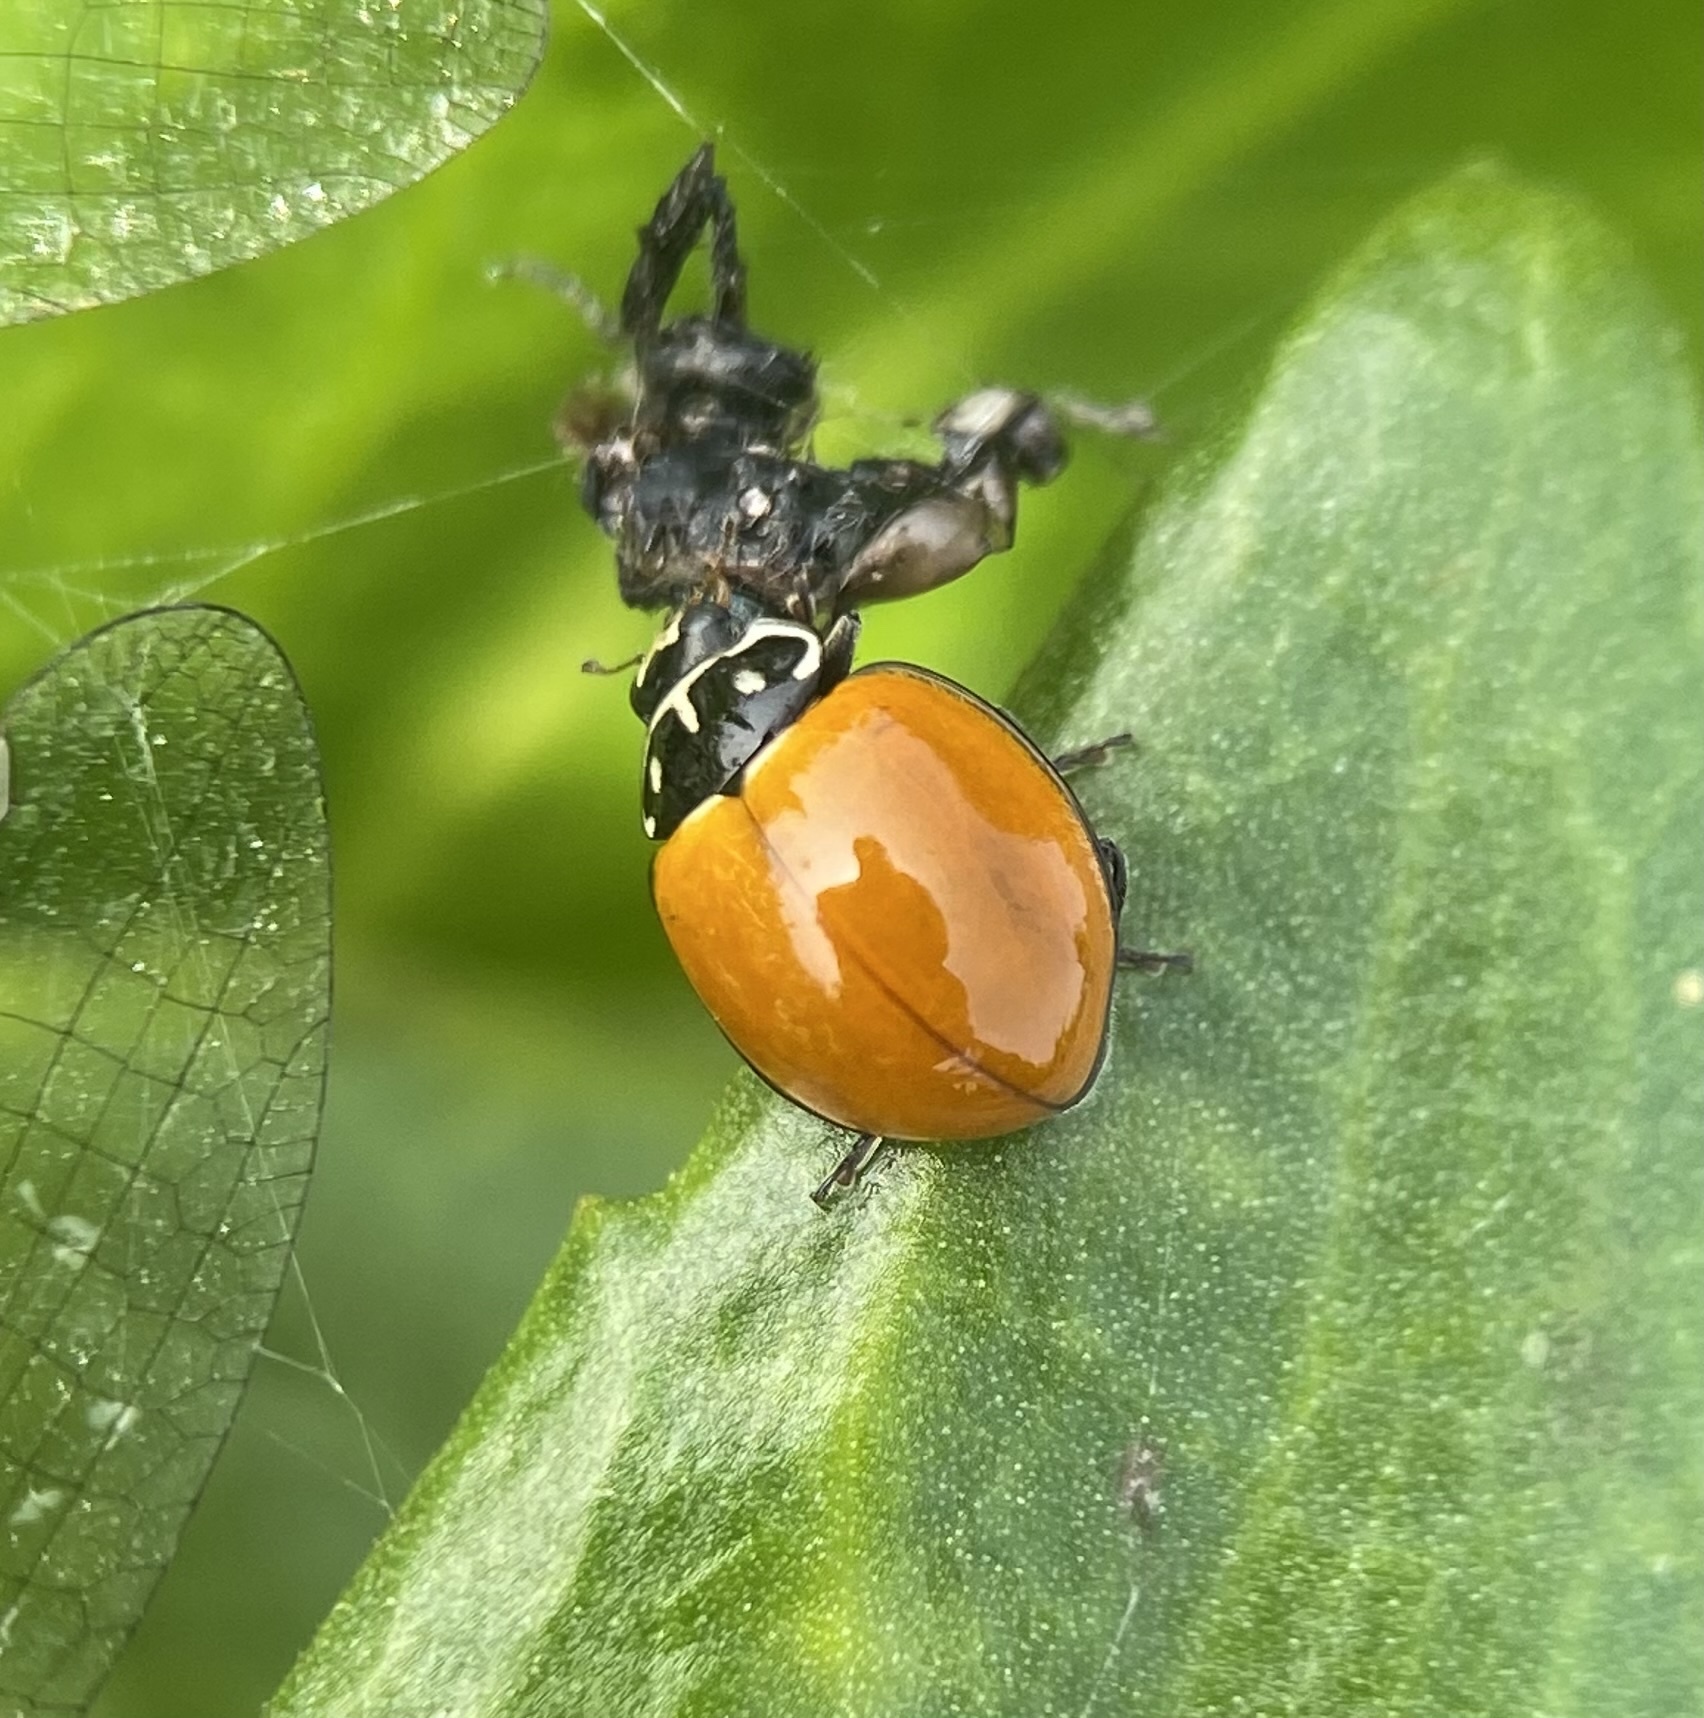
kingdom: Animalia
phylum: Arthropoda
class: Insecta
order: Coleoptera
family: Coccinellidae
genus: Cycloneda
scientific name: Cycloneda sanguinea
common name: Ladybird beetle
